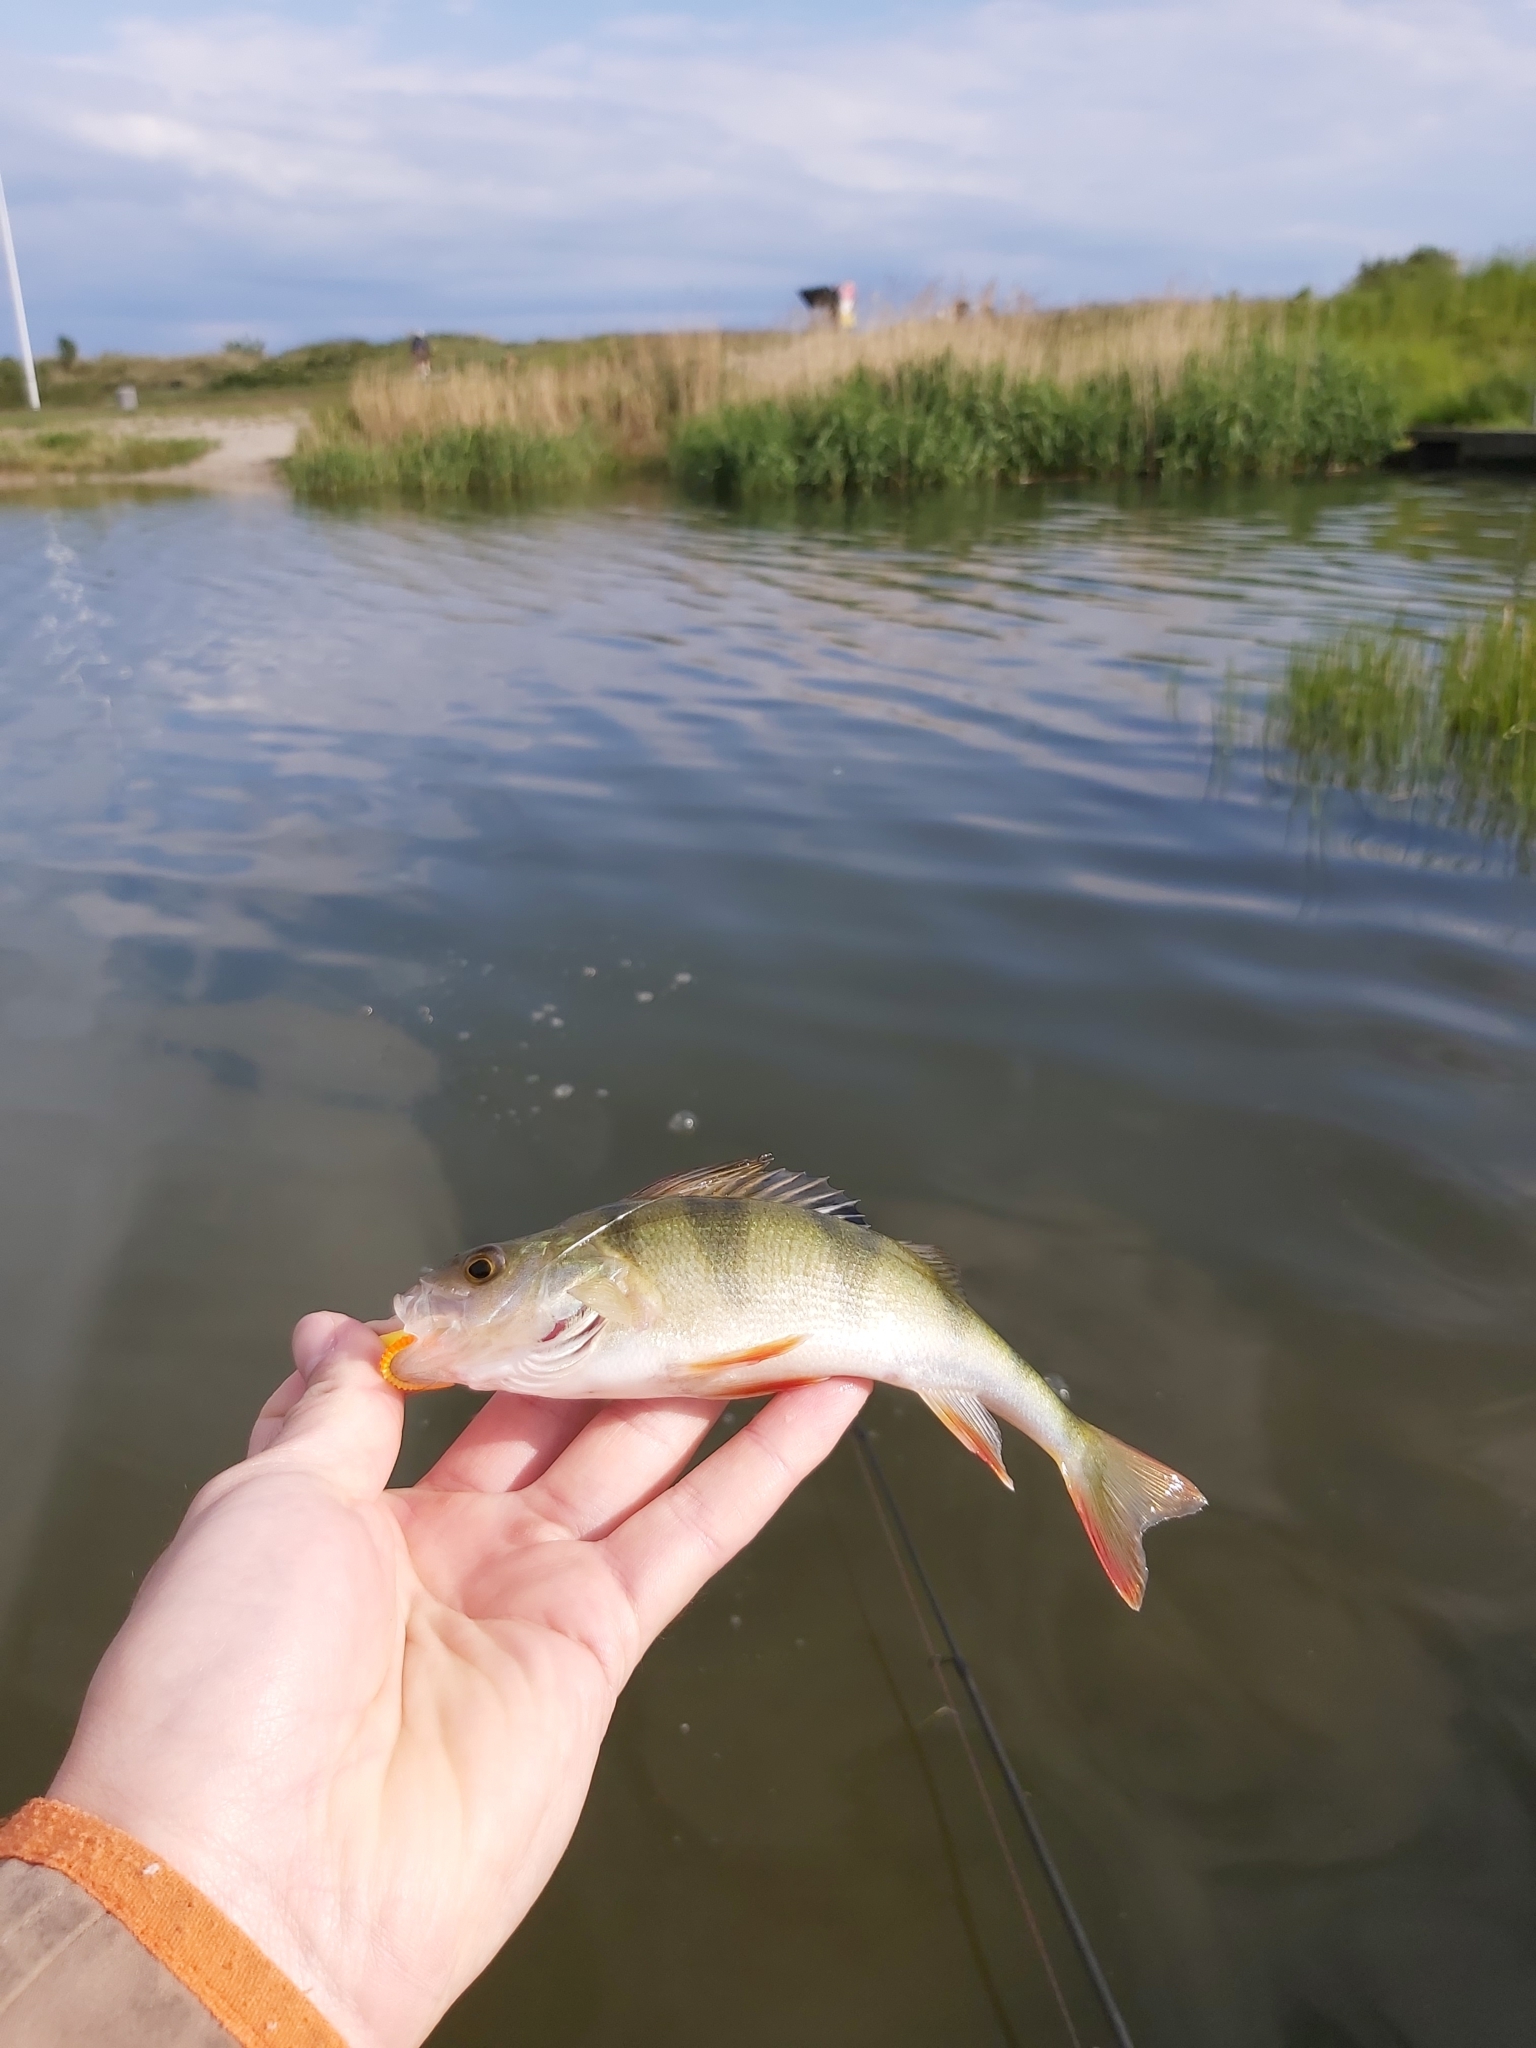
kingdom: Animalia
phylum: Chordata
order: Perciformes
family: Percidae
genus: Perca
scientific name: Perca fluviatilis
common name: Perch
